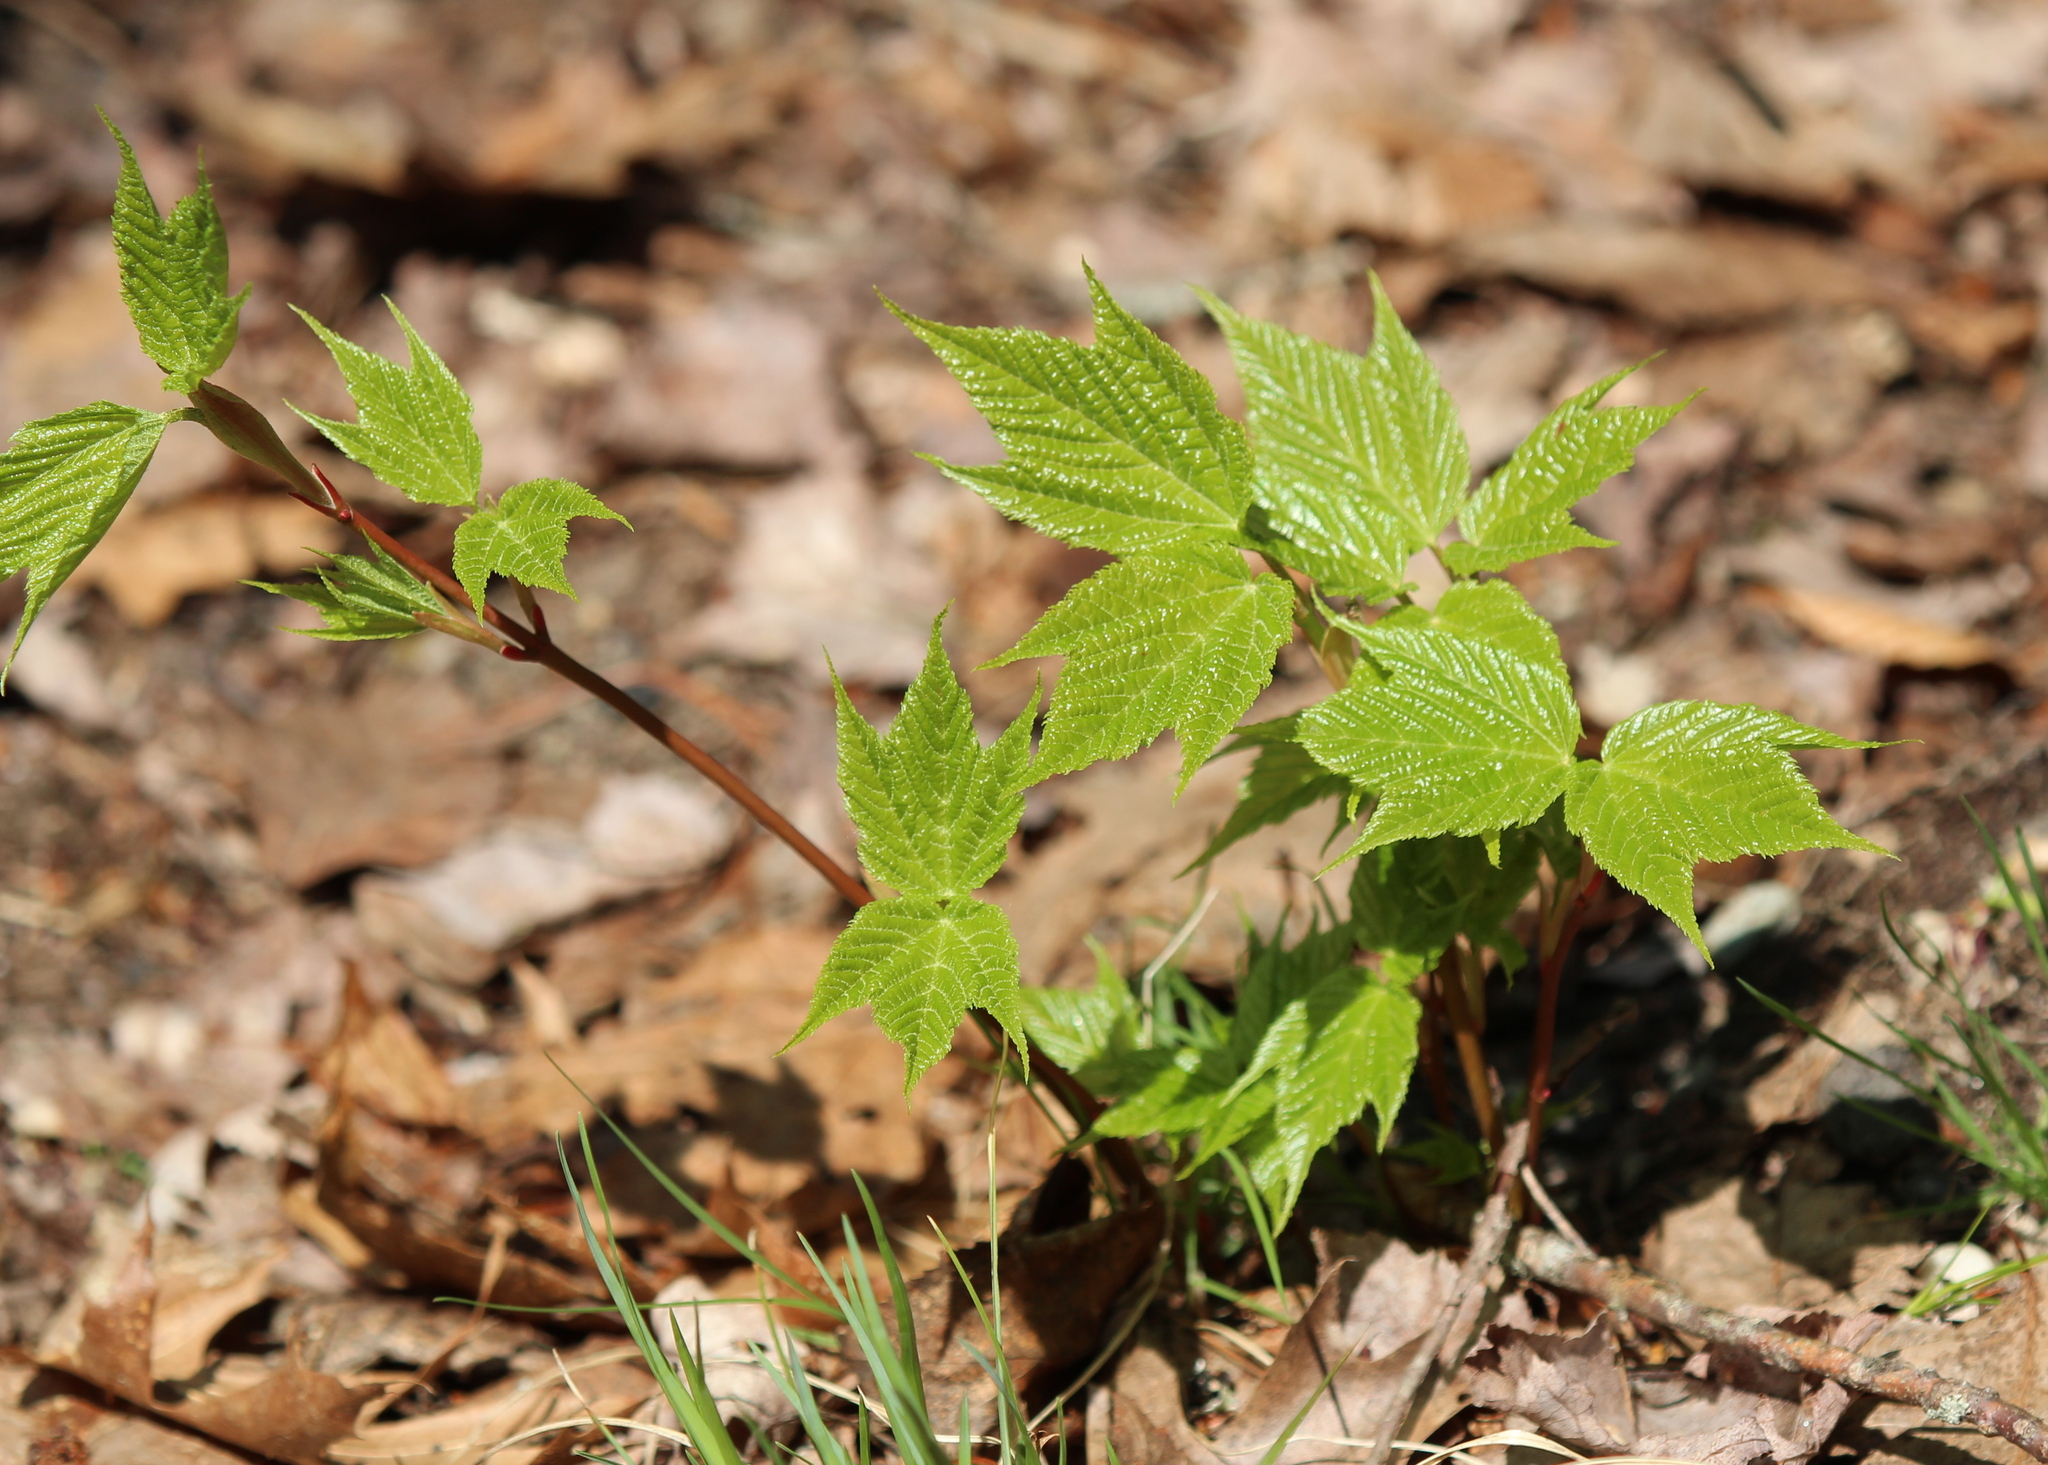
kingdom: Plantae
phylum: Tracheophyta
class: Magnoliopsida
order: Sapindales
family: Sapindaceae
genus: Acer
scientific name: Acer pensylvanicum
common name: Moosewood
